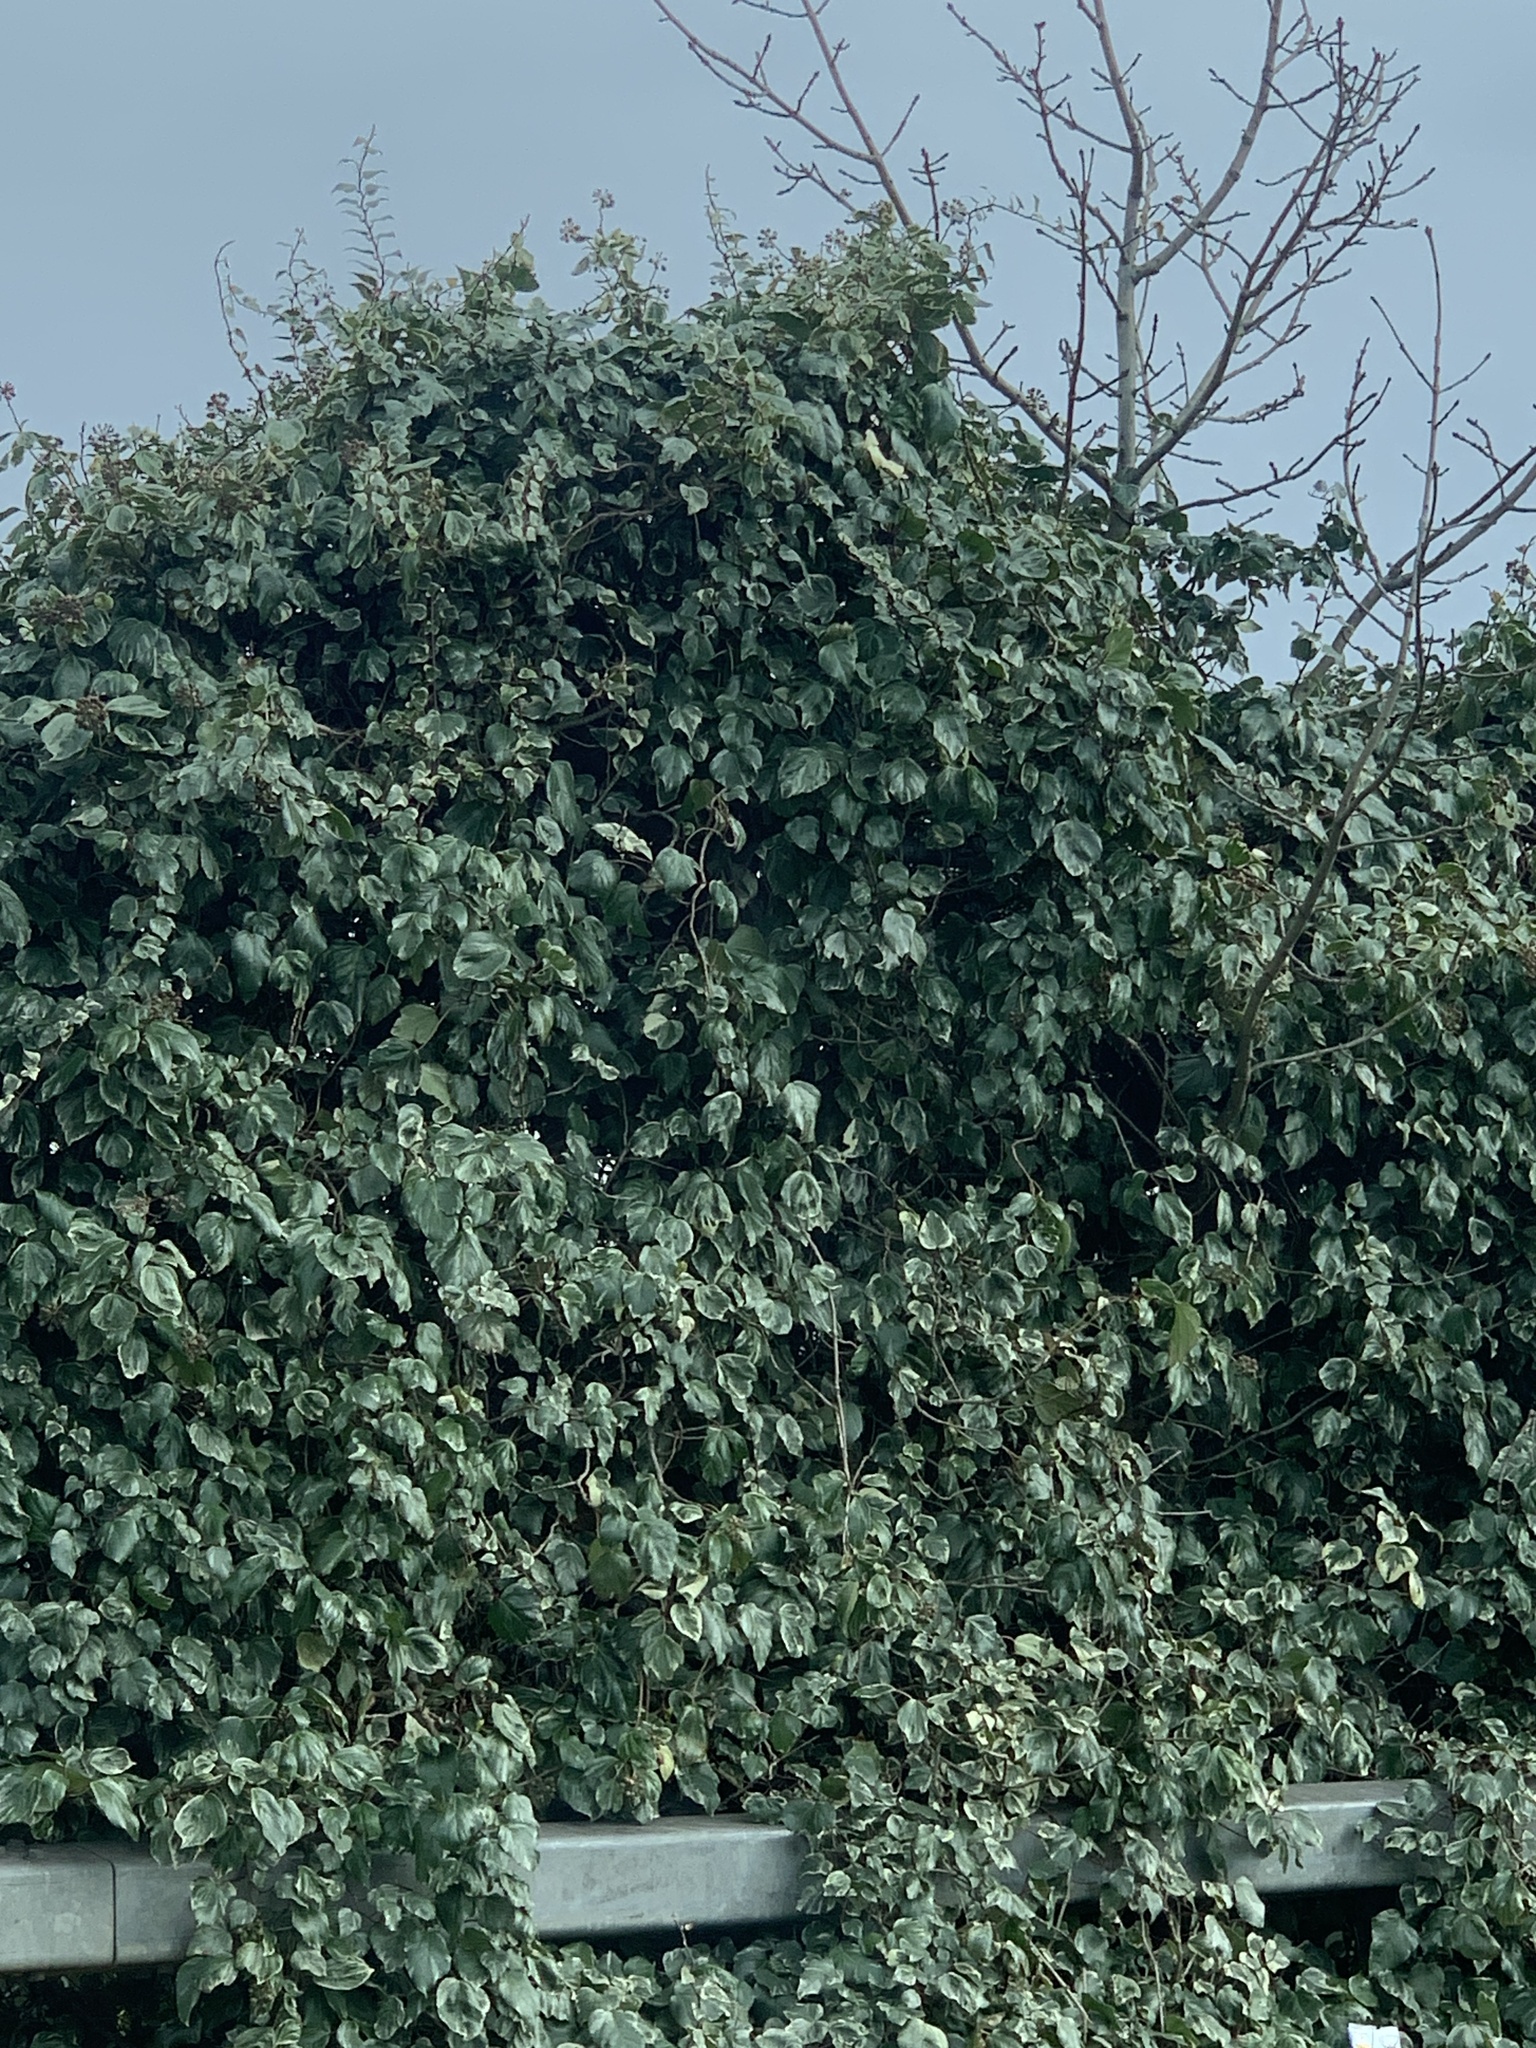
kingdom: Plantae
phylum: Tracheophyta
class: Magnoliopsida
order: Apiales
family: Araliaceae
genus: Hedera
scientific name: Hedera helix
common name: Ivy
